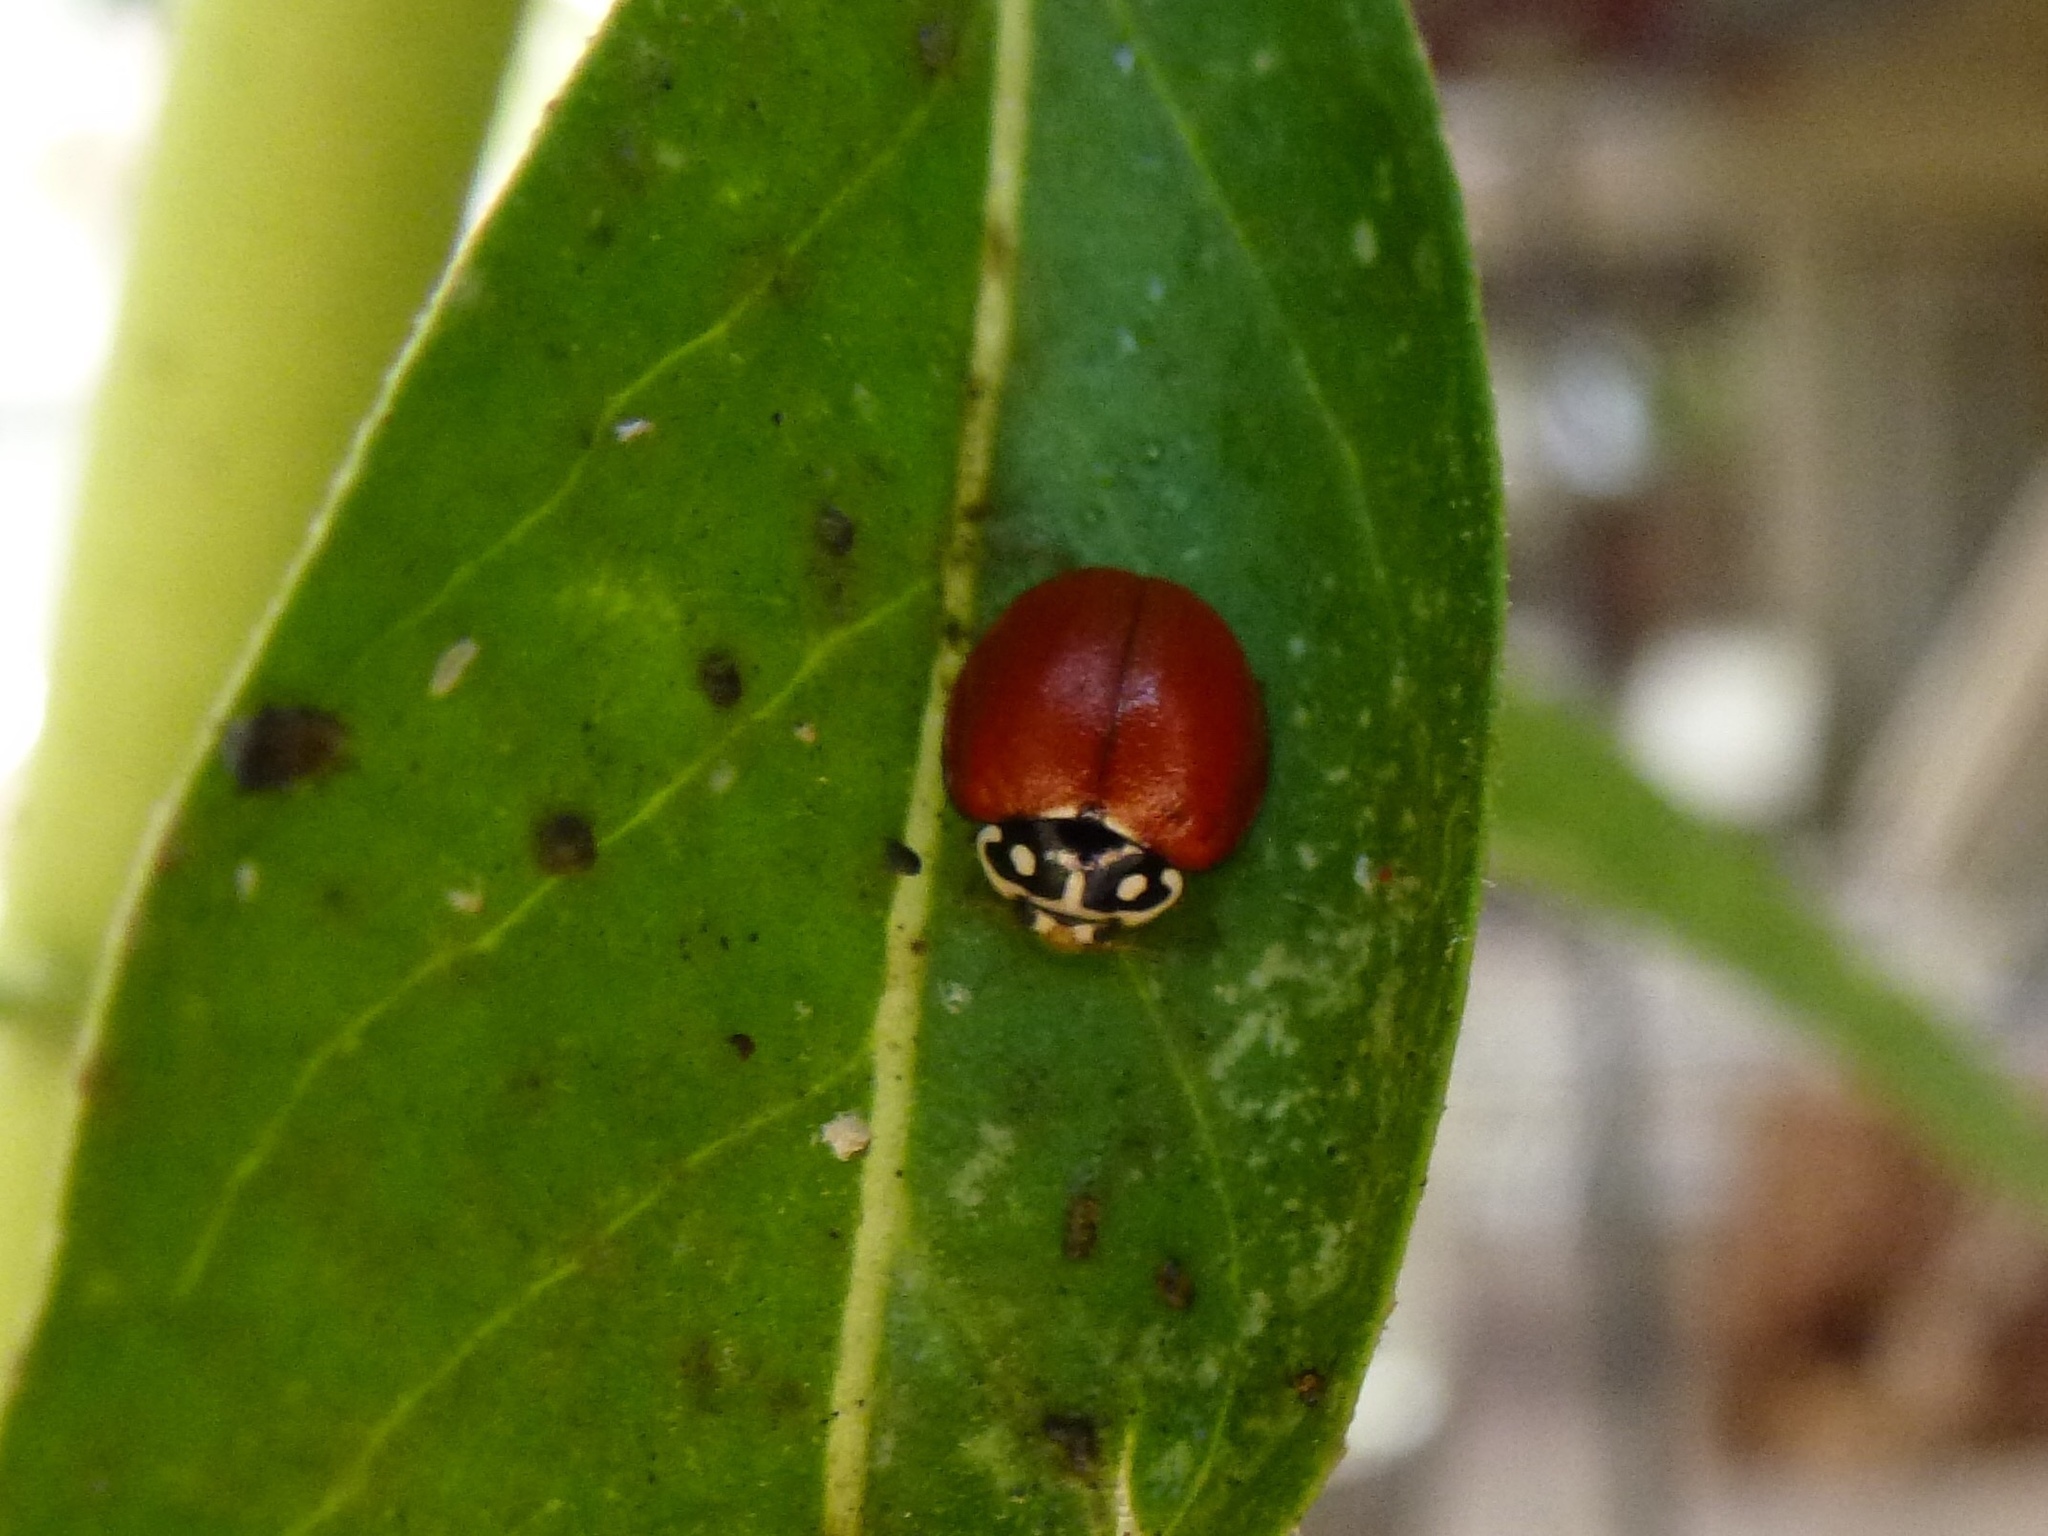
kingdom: Animalia
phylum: Arthropoda
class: Insecta
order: Coleoptera
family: Coccinellidae
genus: Cycloneda
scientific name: Cycloneda sanguinea
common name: Ladybird beetle
